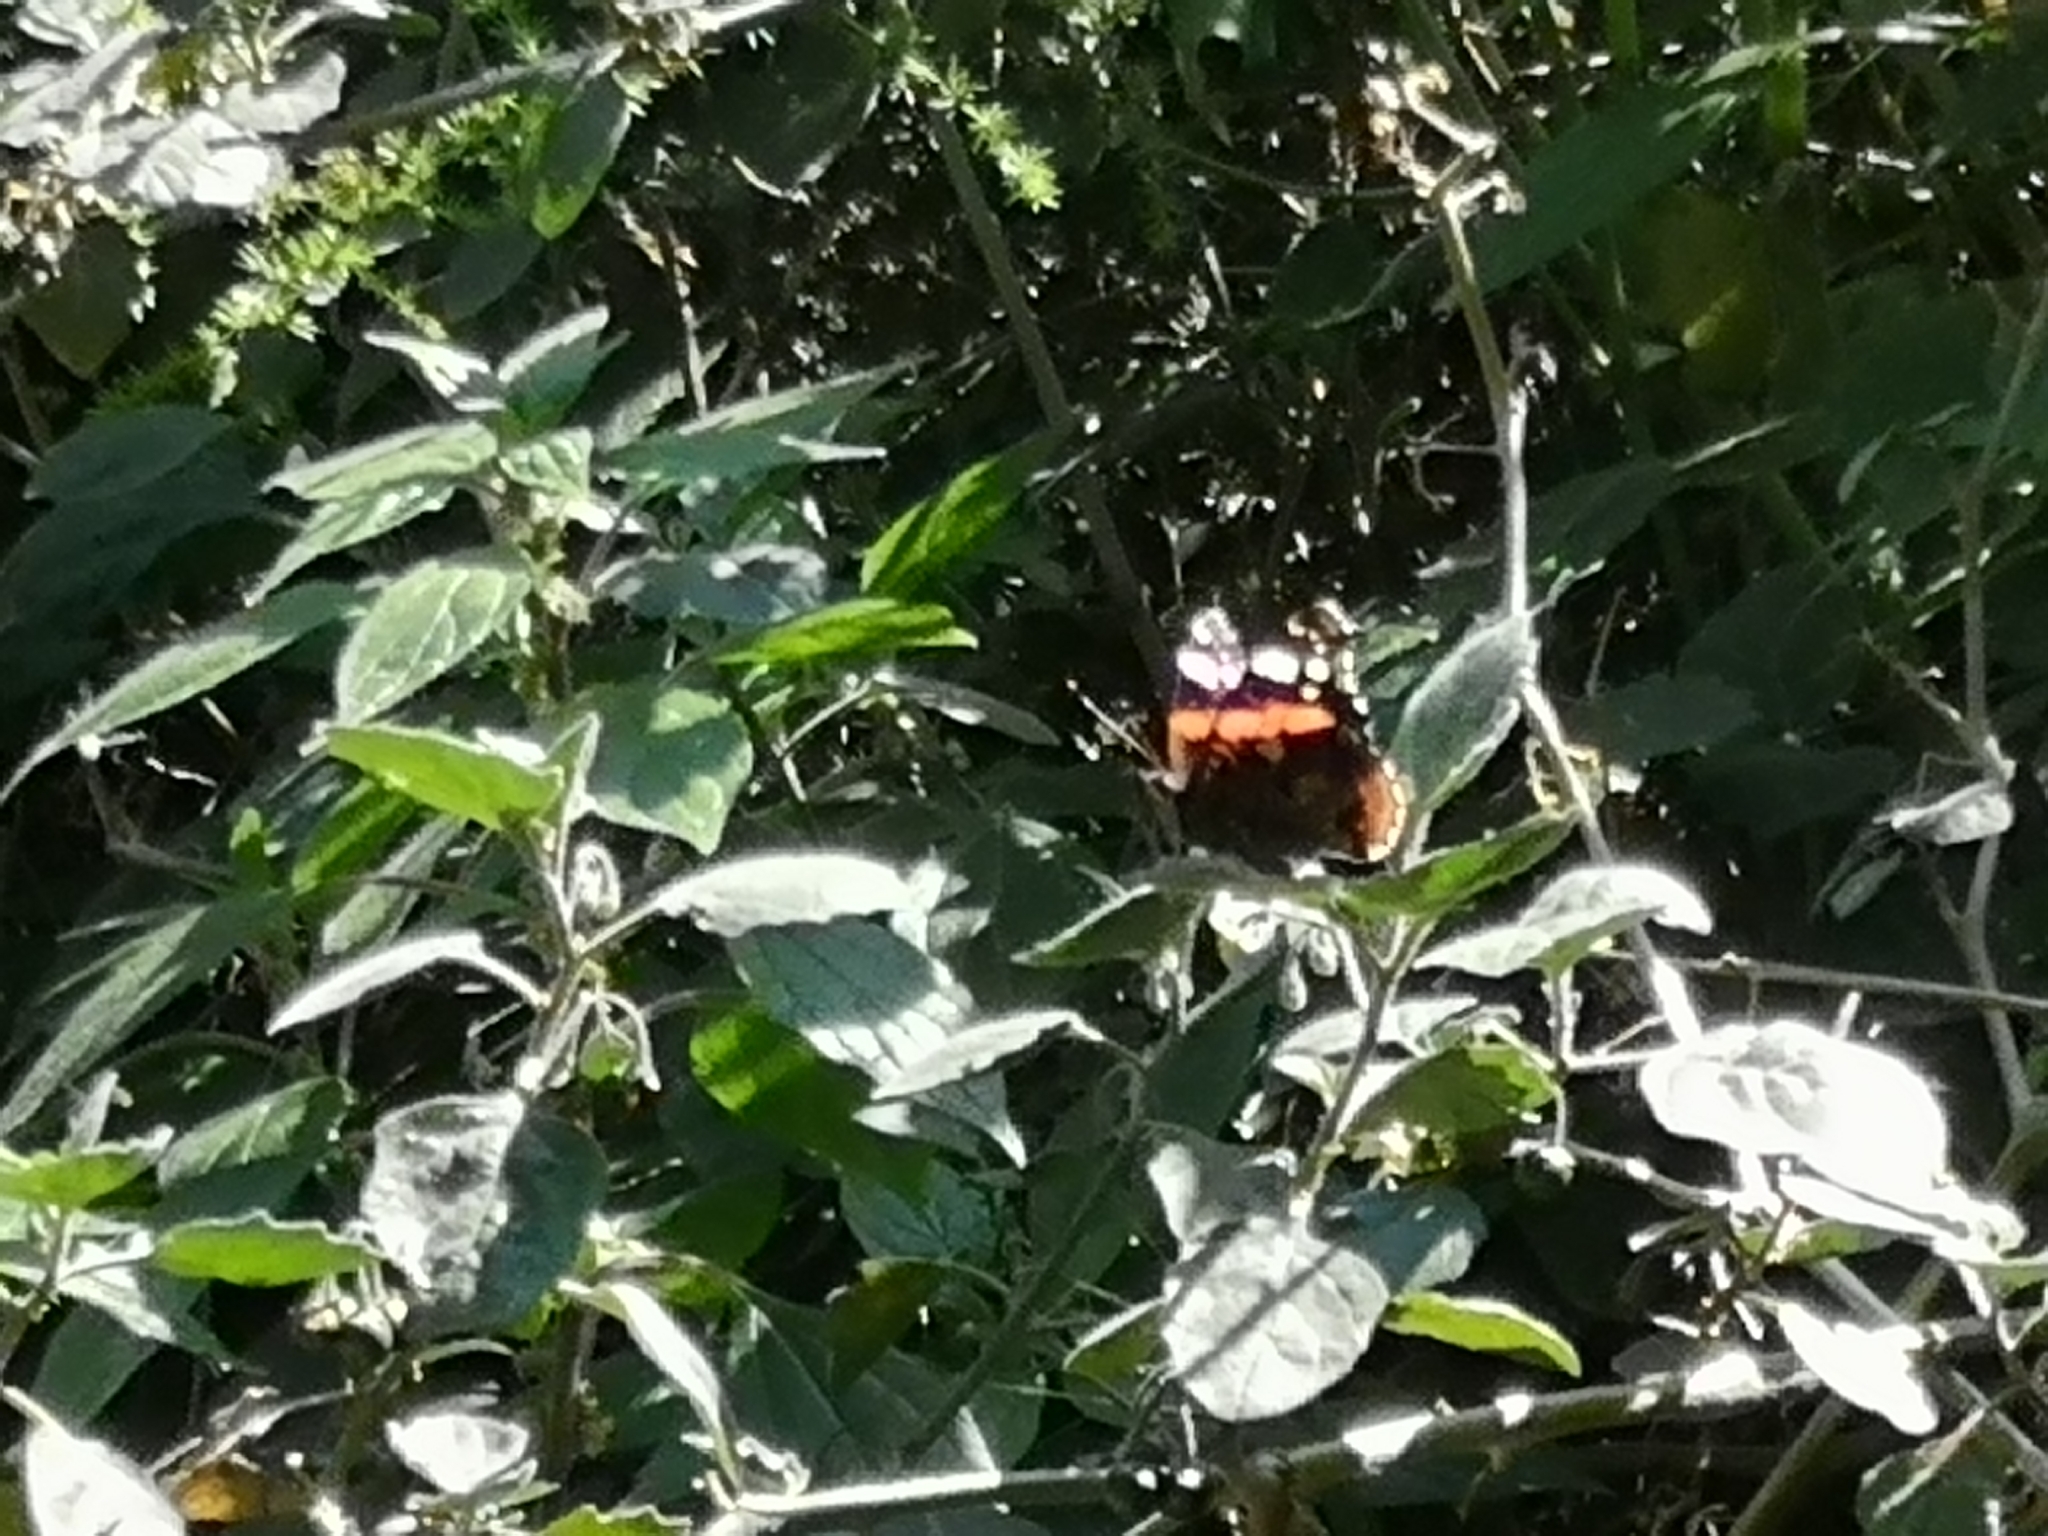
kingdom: Animalia
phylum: Arthropoda
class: Insecta
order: Lepidoptera
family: Nymphalidae
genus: Vanessa
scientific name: Vanessa atalanta
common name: Red admiral
